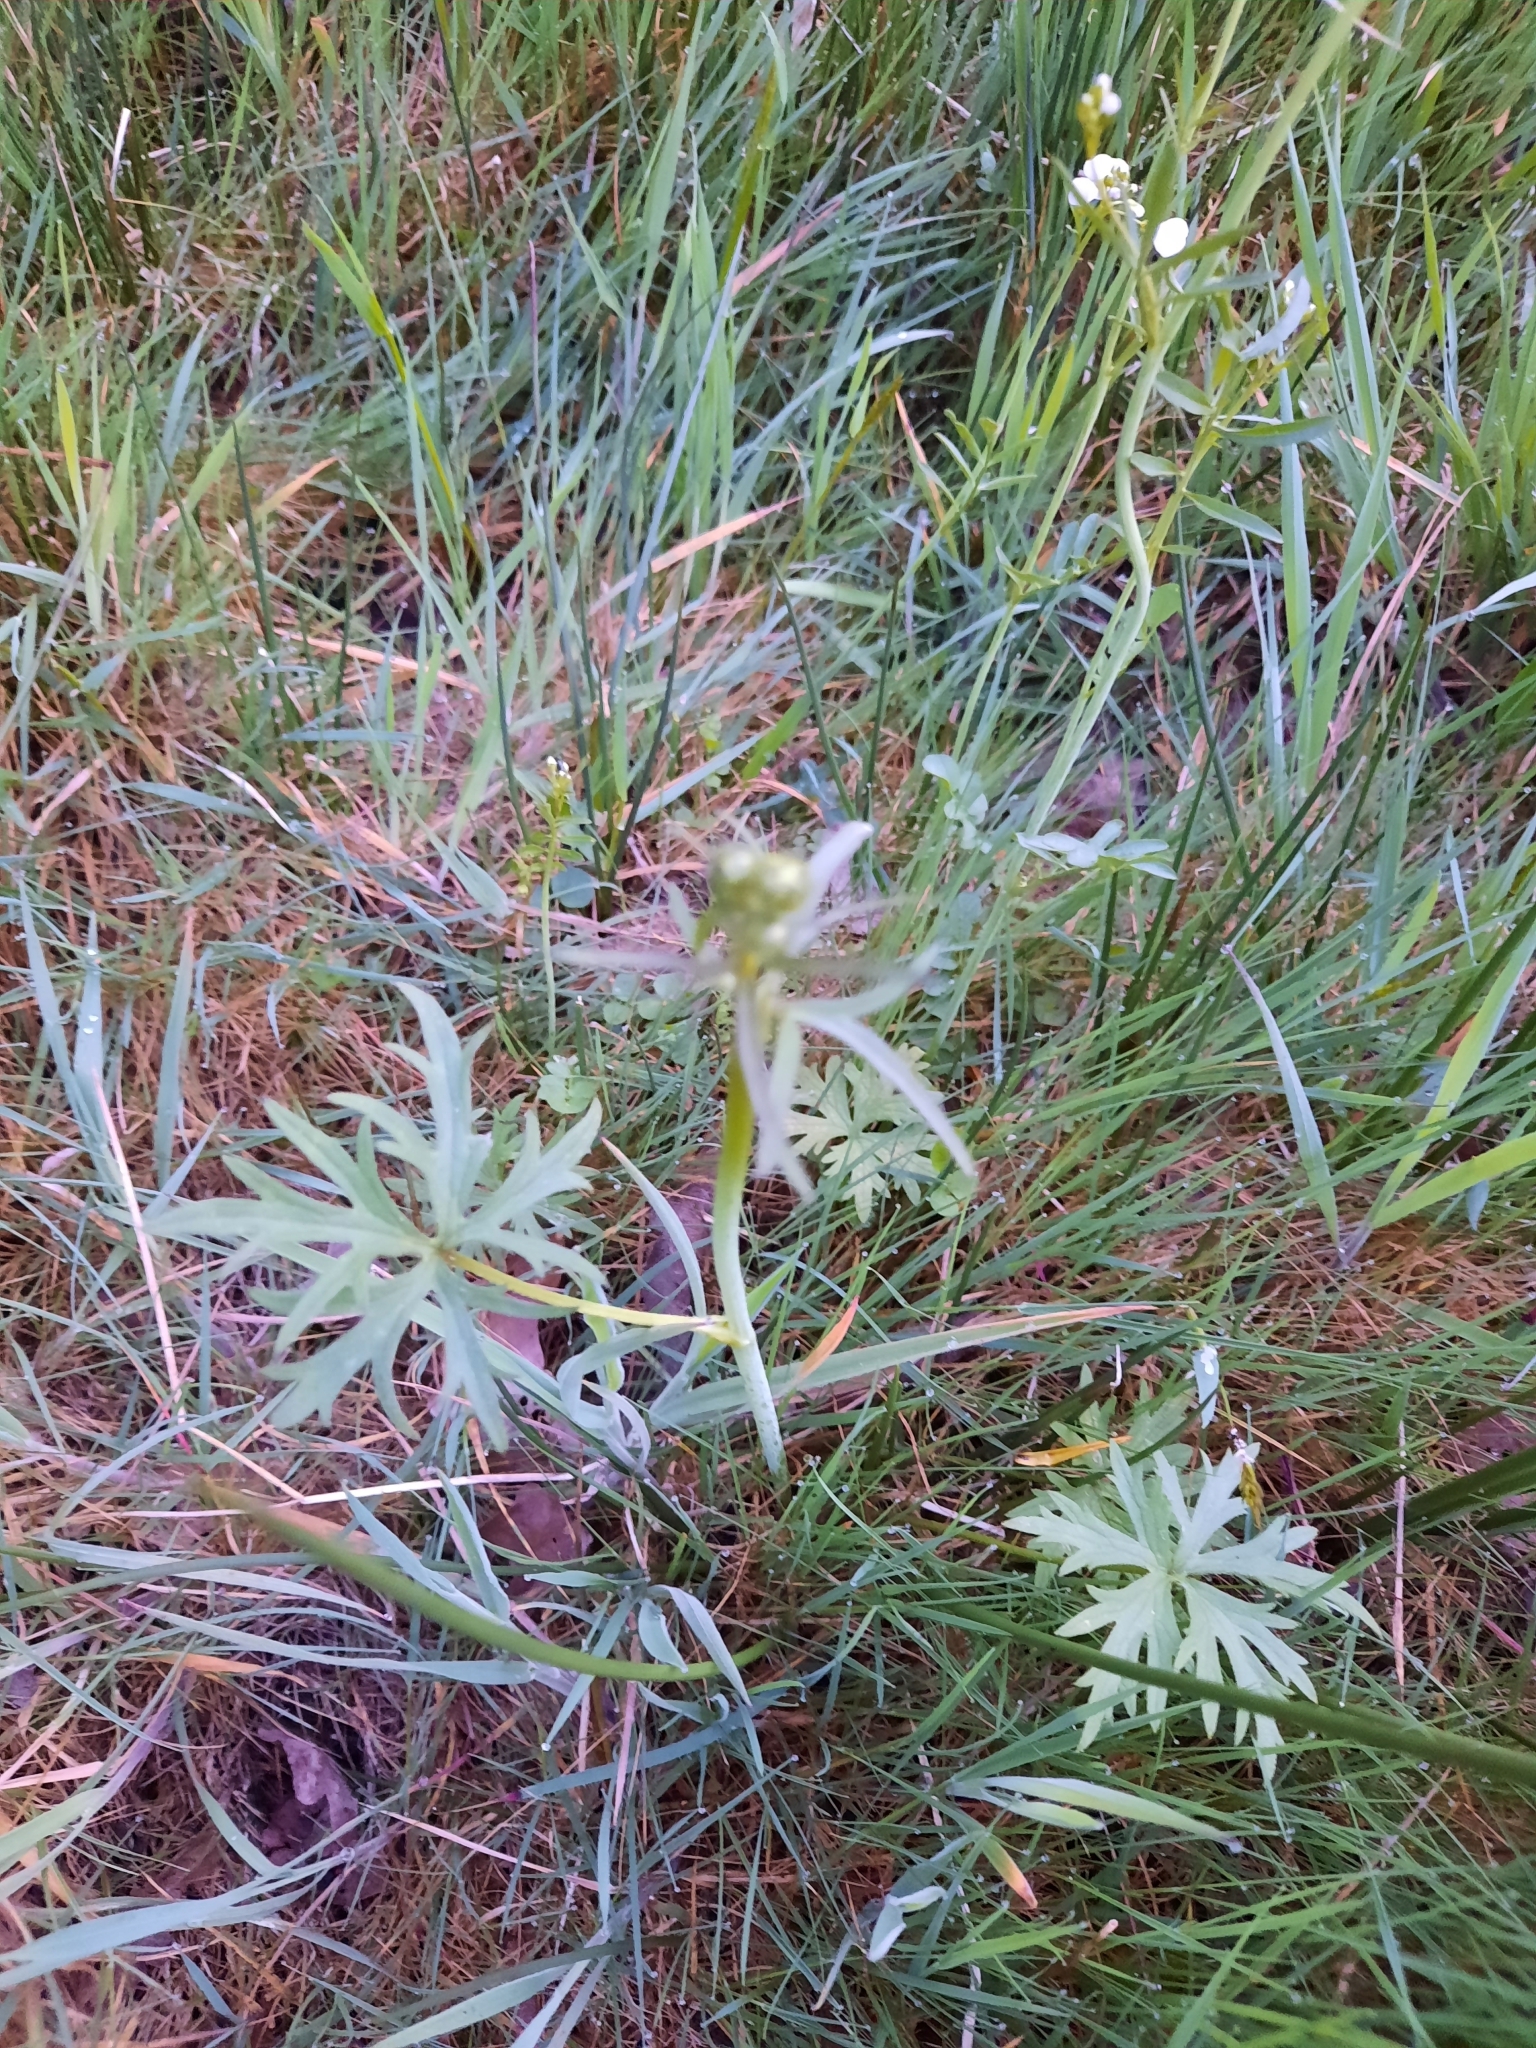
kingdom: Plantae
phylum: Tracheophyta
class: Magnoliopsida
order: Ranunculales
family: Ranunculaceae
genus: Ranunculus
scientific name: Ranunculus acris
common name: Meadow buttercup
